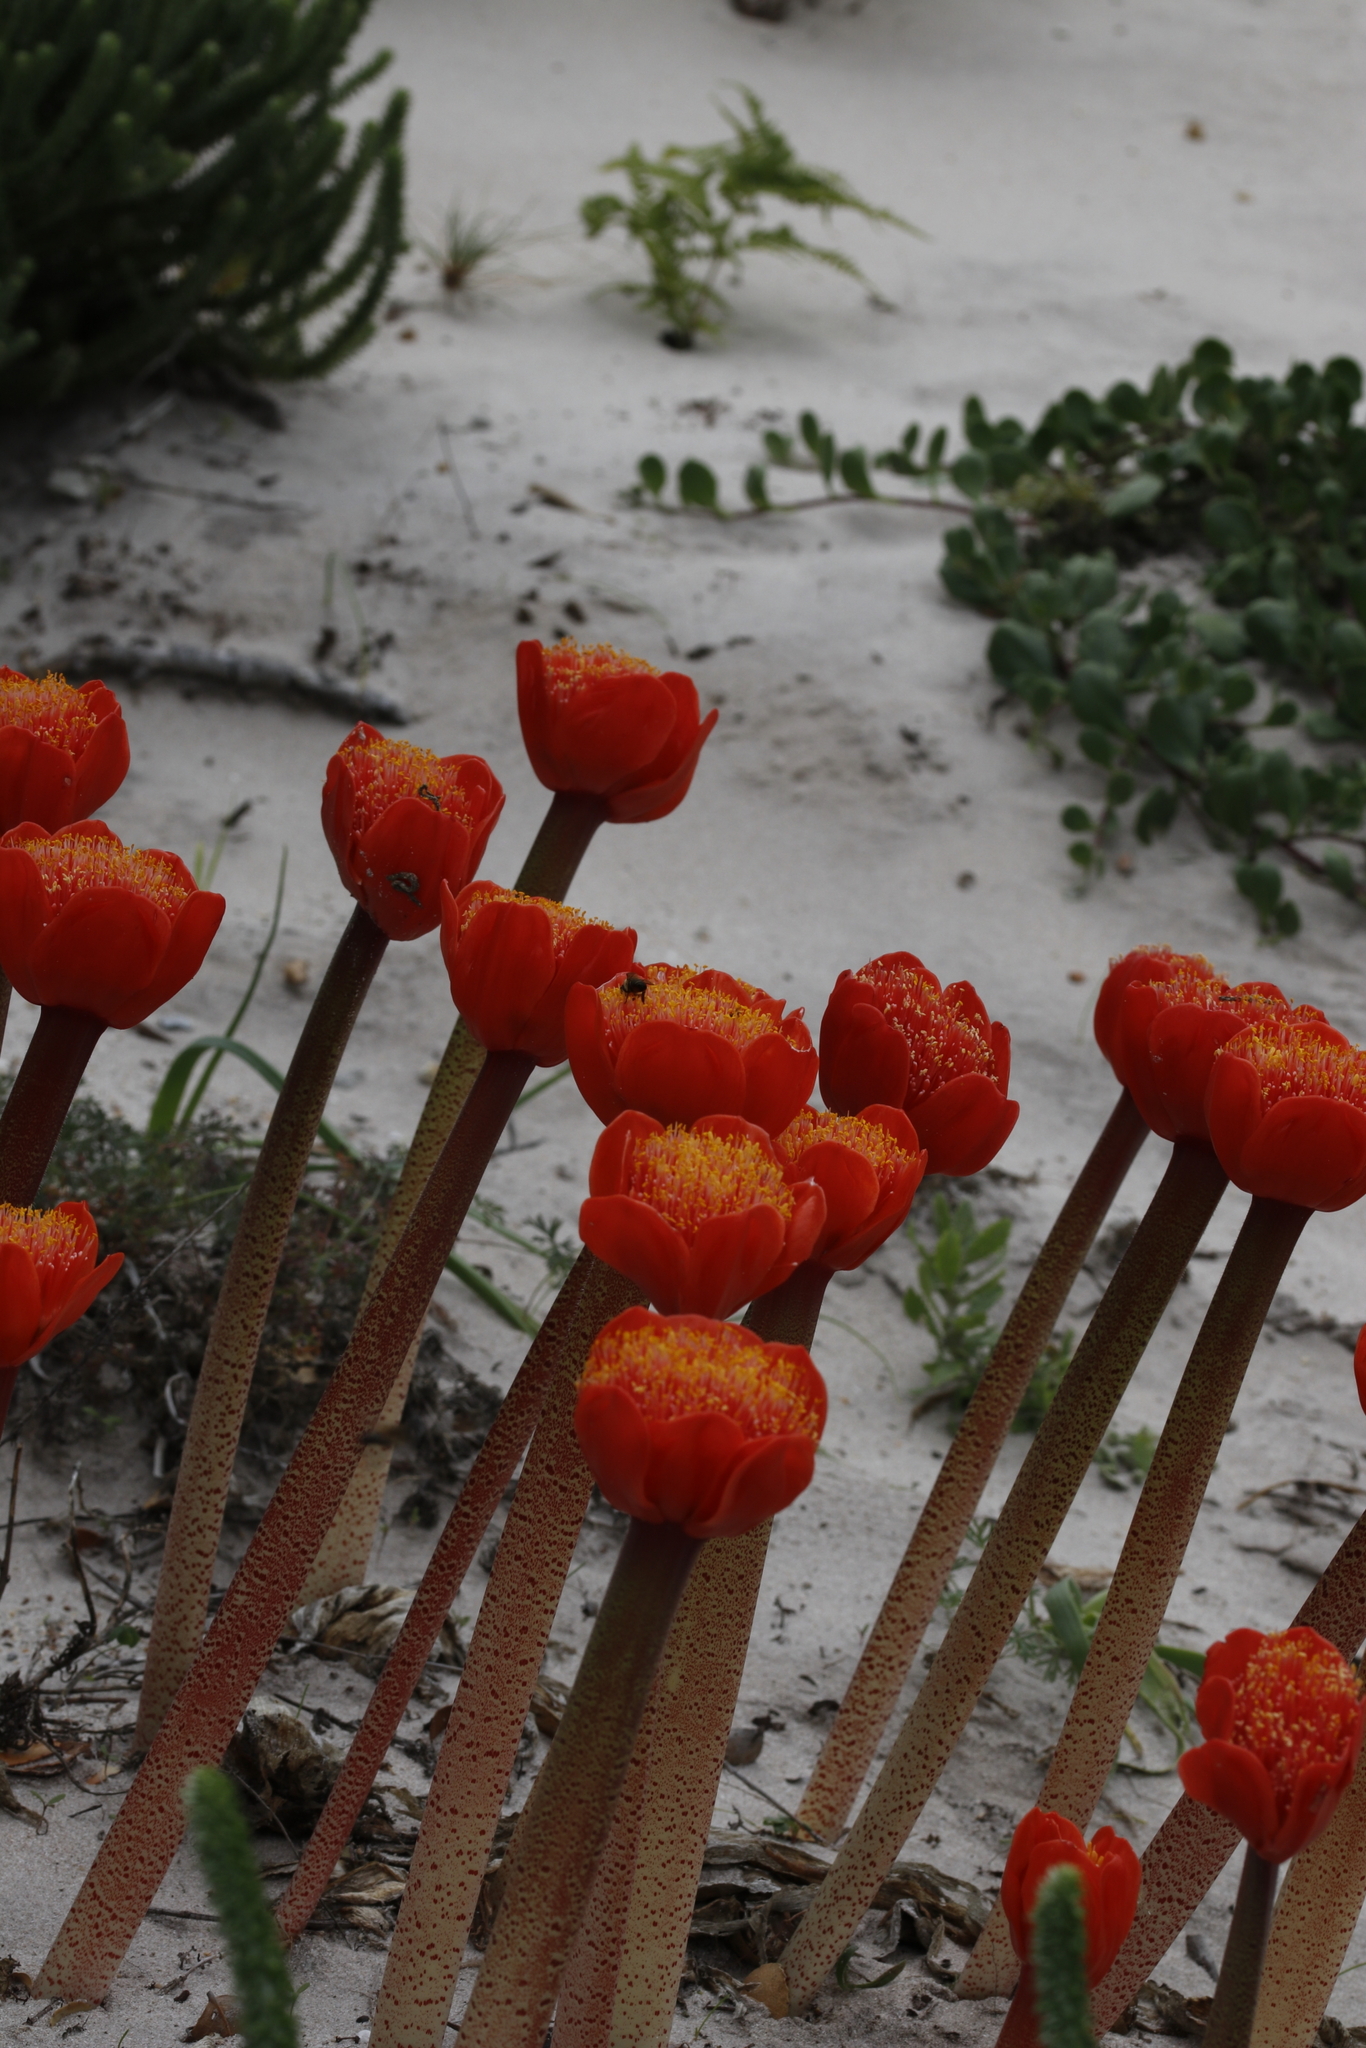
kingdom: Plantae
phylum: Tracheophyta
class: Liliopsida
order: Asparagales
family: Amaryllidaceae
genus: Haemanthus
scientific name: Haemanthus coccineus
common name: Cape-tulip
